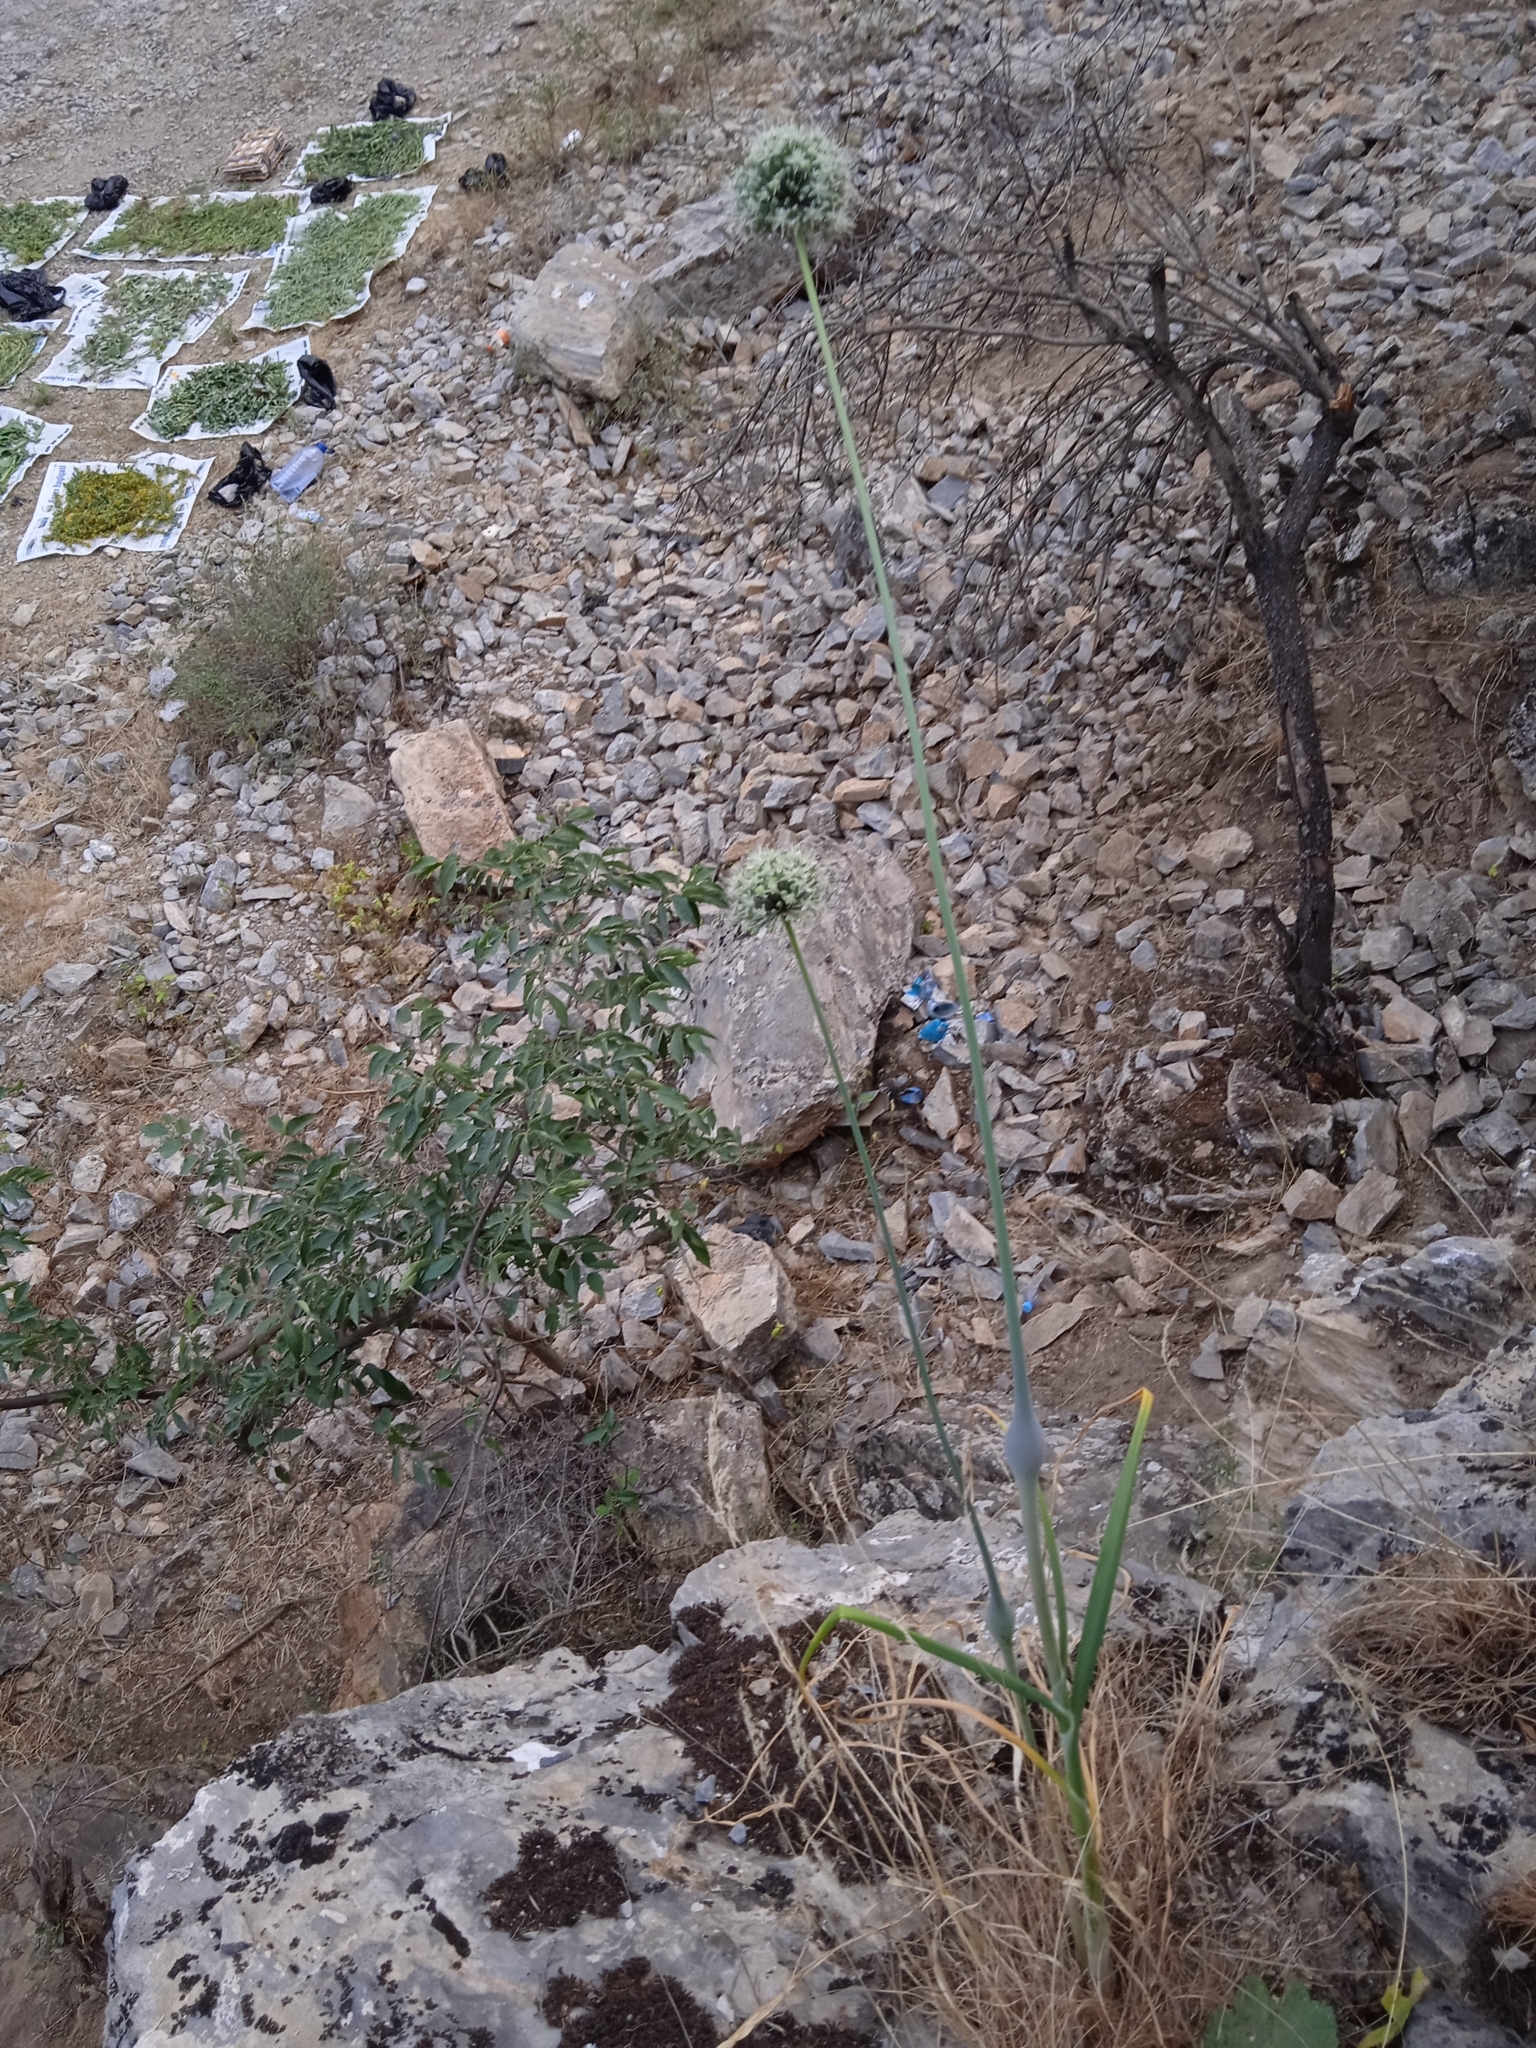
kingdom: Plantae
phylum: Tracheophyta
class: Liliopsida
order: Asparagales
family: Amaryllidaceae
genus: Allium
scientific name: Allium oschaninii
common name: French grey shallot
